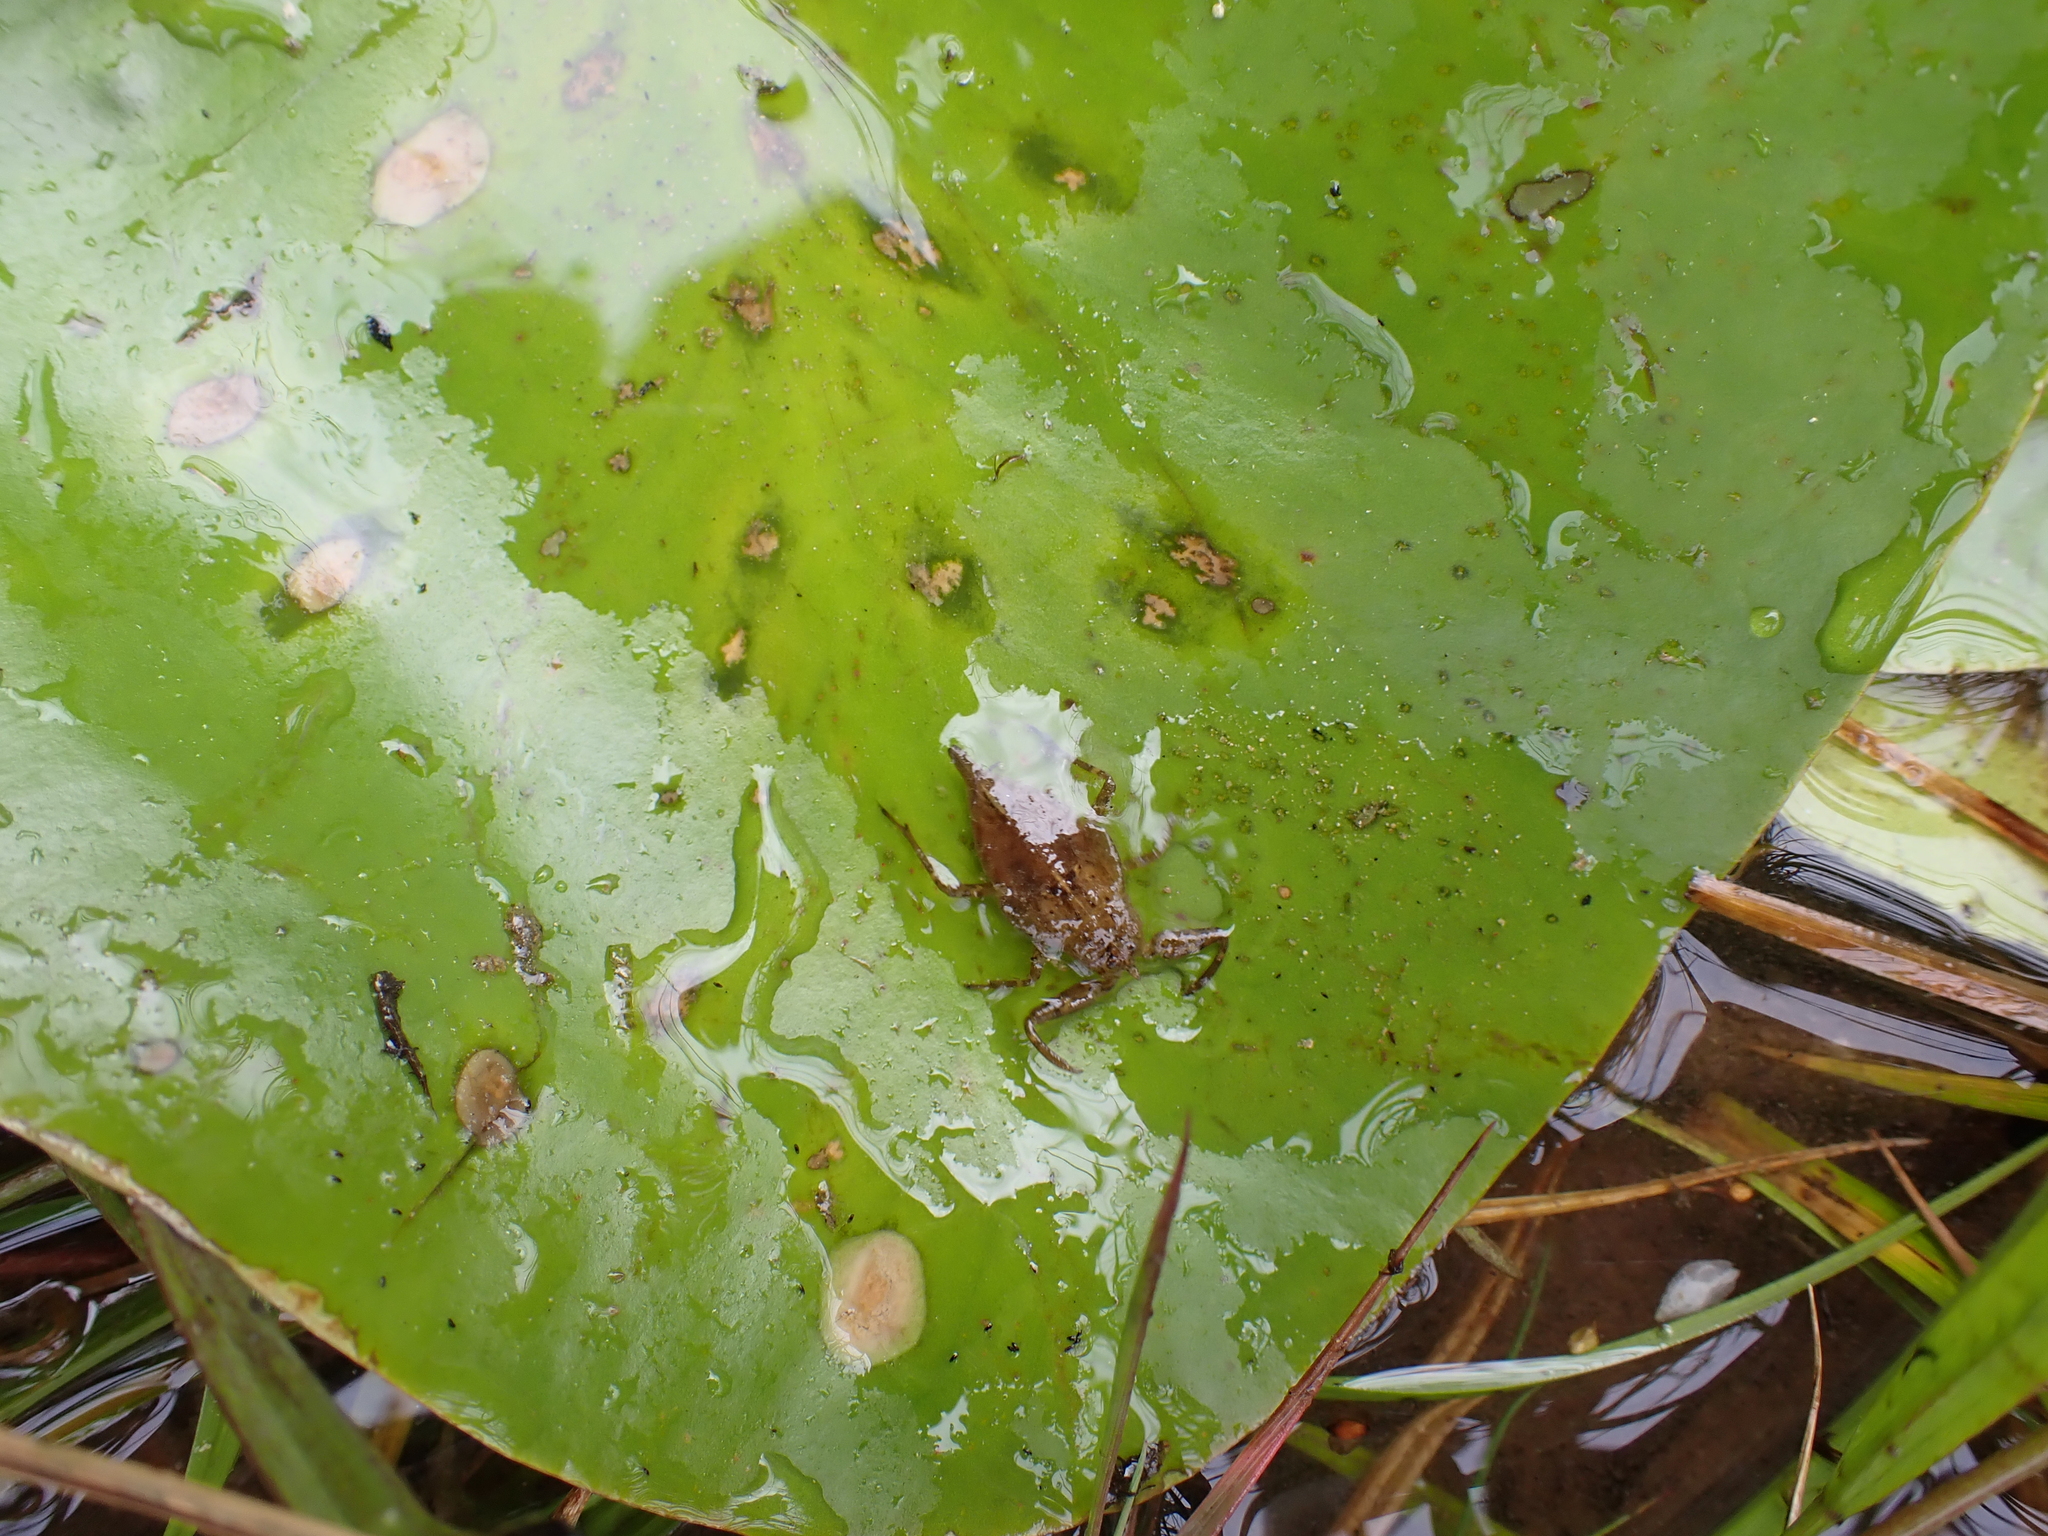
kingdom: Animalia
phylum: Arthropoda
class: Insecta
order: Hemiptera
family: Nepidae
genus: Nepa
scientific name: Nepa cinerea
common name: Water scorpion
